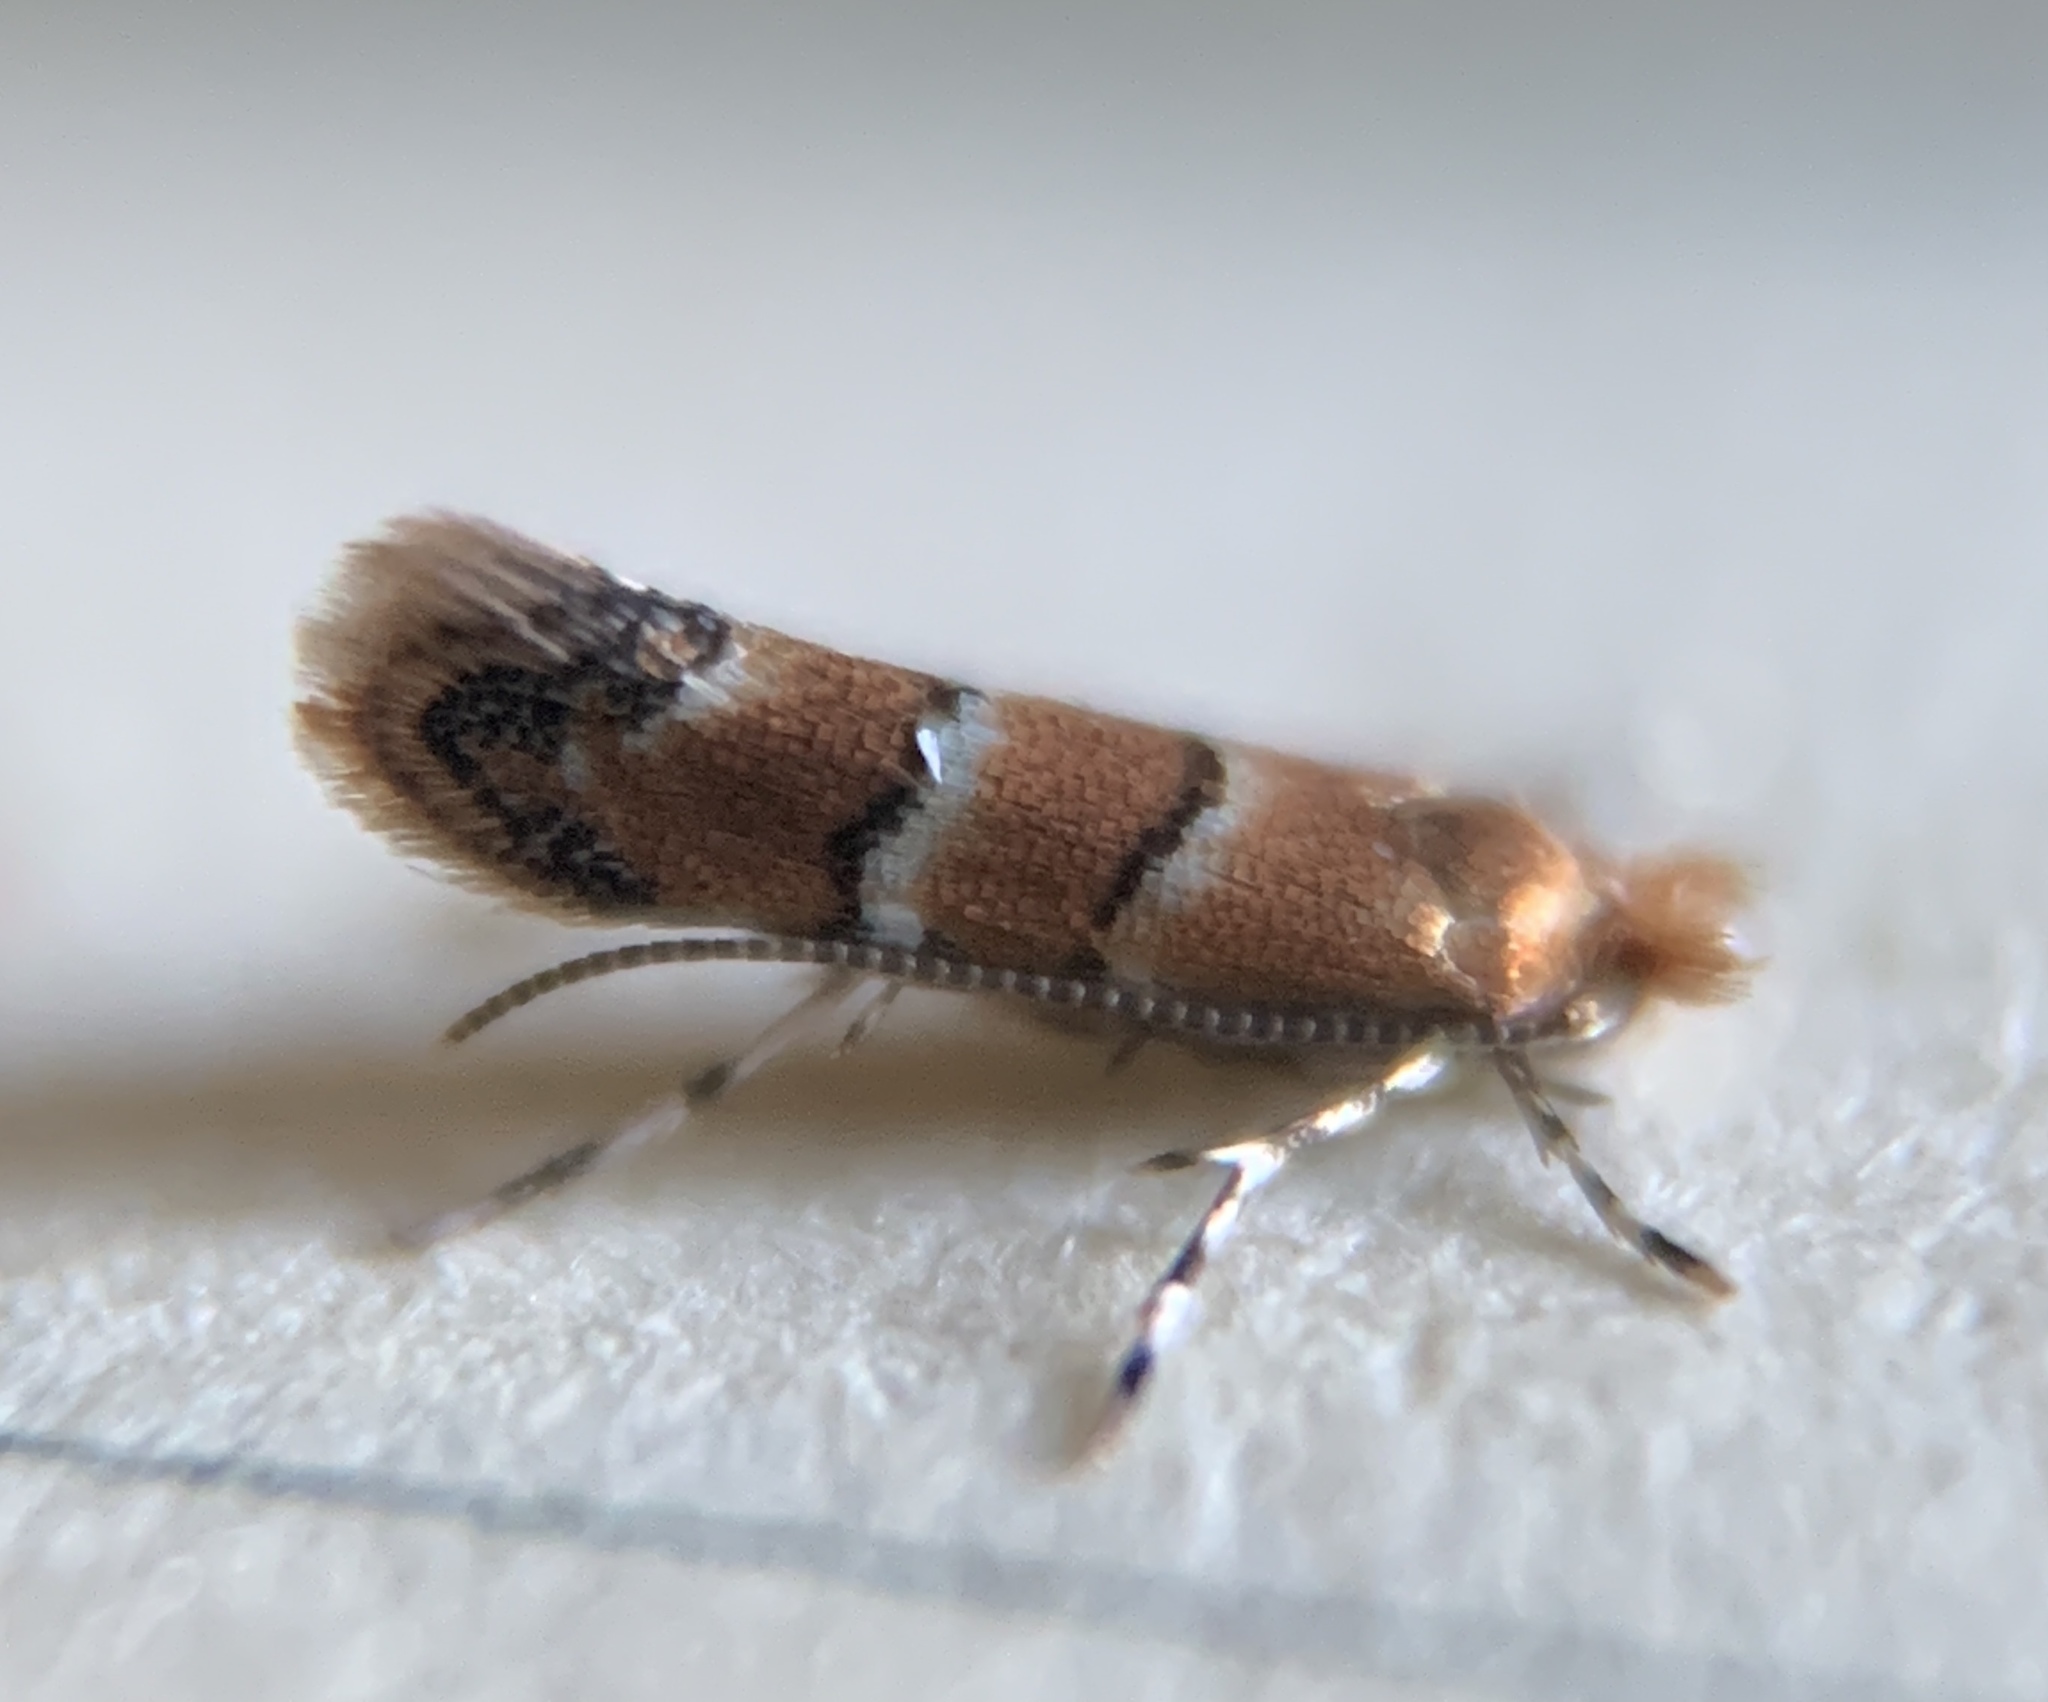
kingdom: Animalia
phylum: Arthropoda
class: Insecta
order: Lepidoptera
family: Gracillariidae
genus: Cameraria
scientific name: Cameraria guttifinitella
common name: Poison ivy leaf-miner moth
